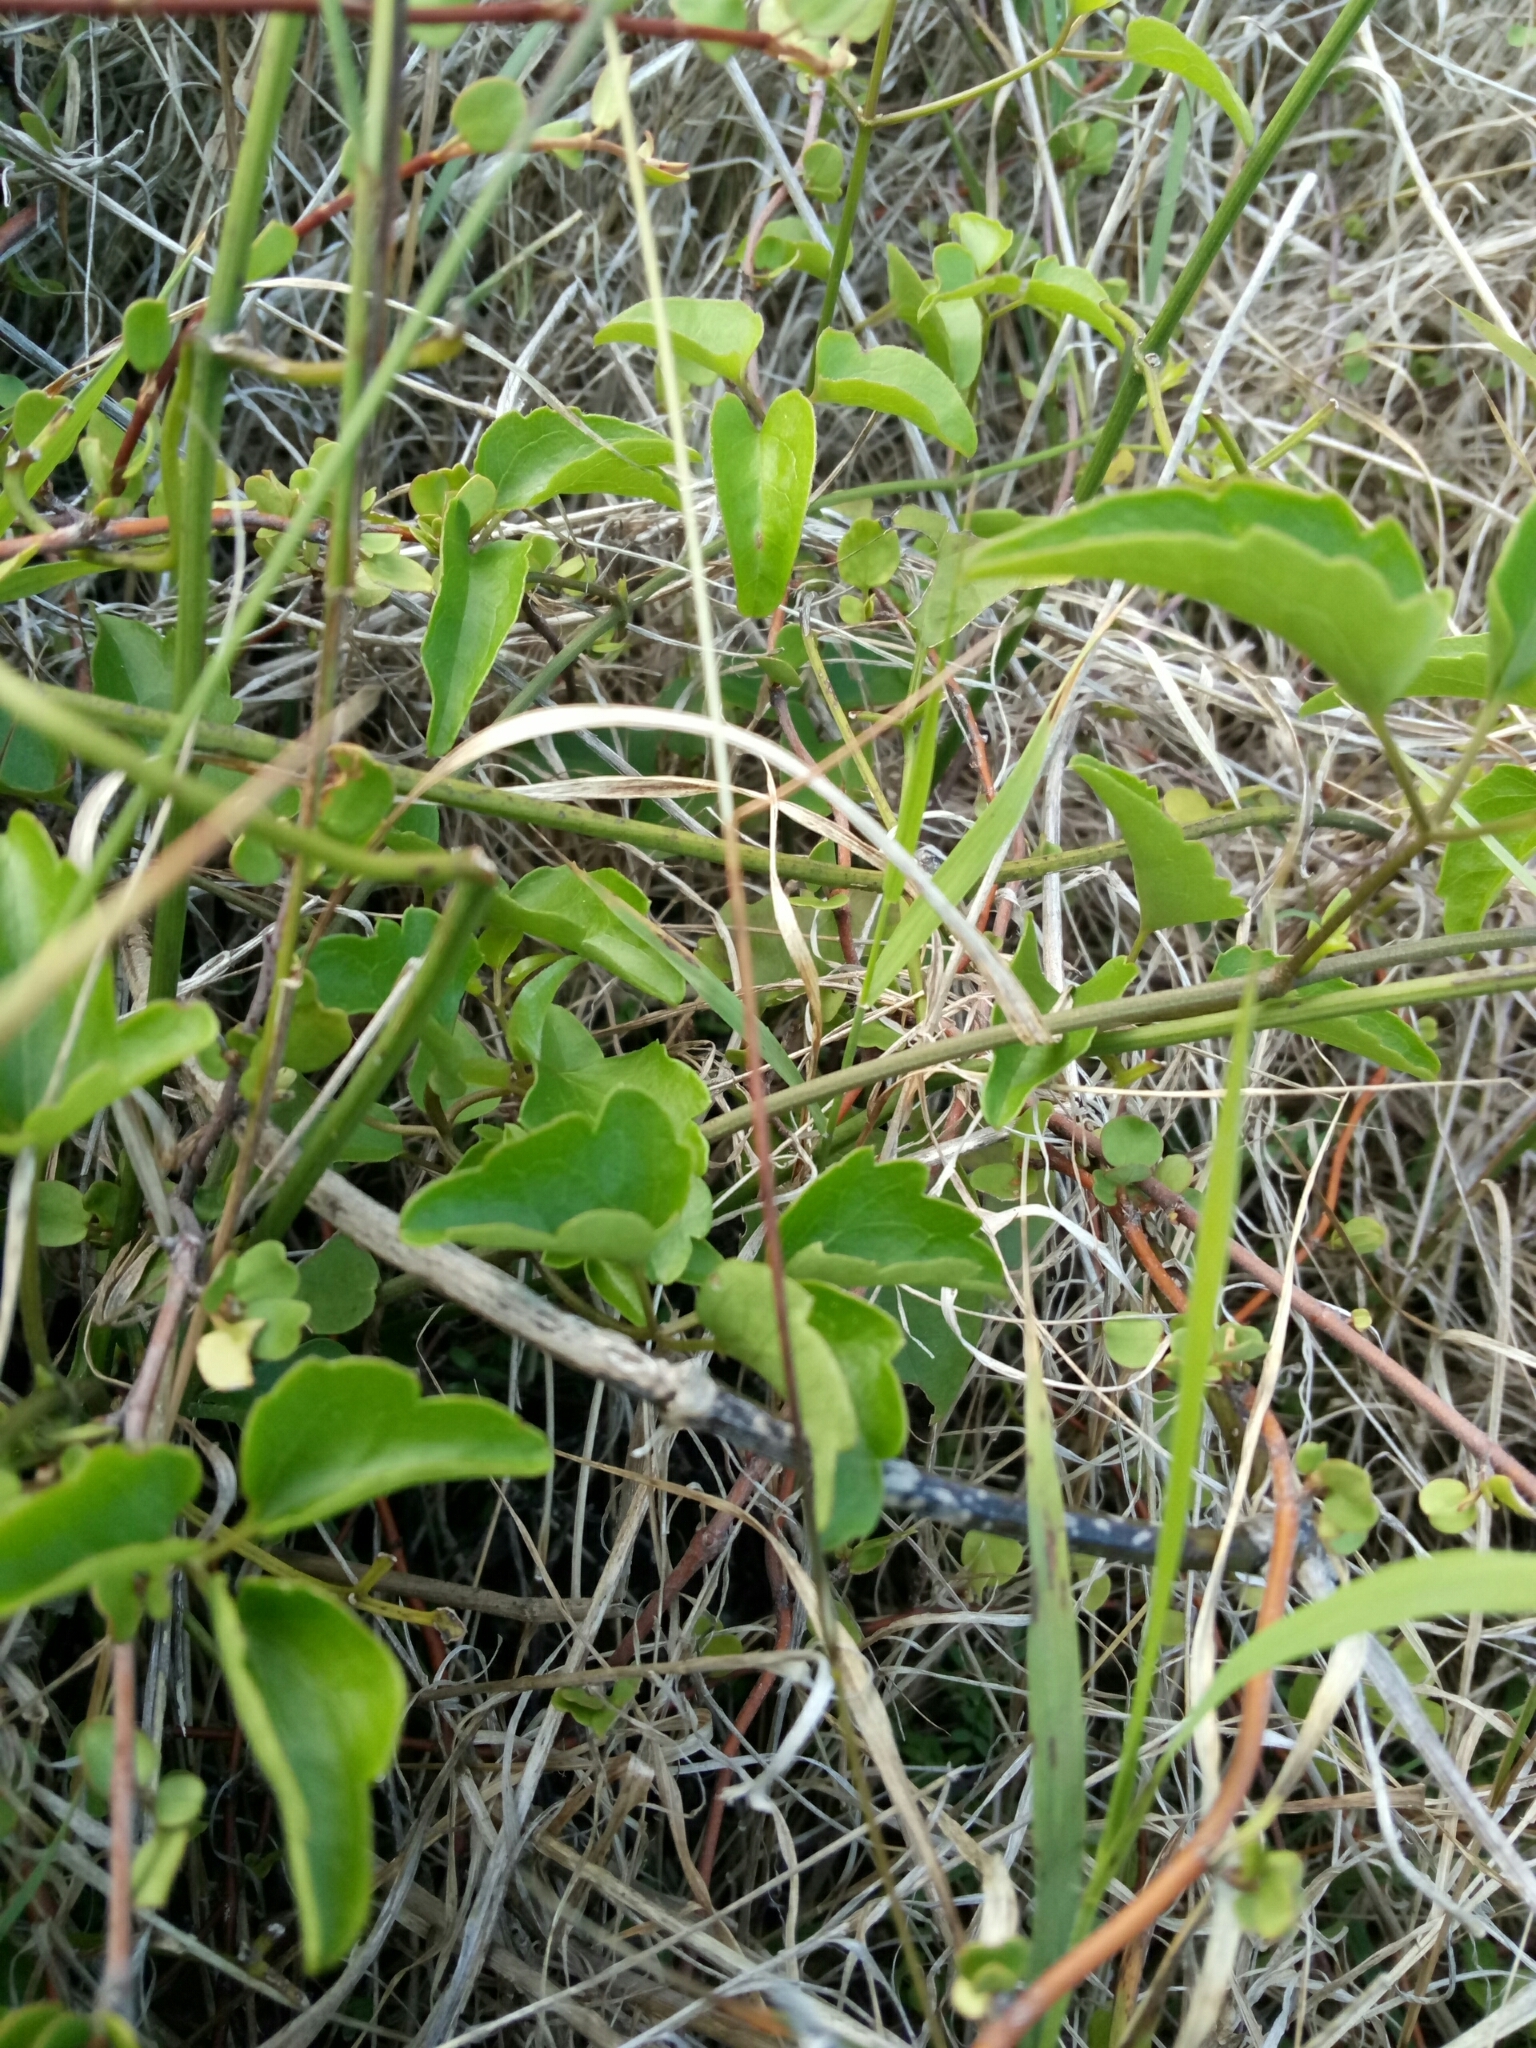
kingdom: Plantae
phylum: Tracheophyta
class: Magnoliopsida
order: Ranunculales
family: Ranunculaceae
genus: Clematis
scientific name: Clematis forsteri
